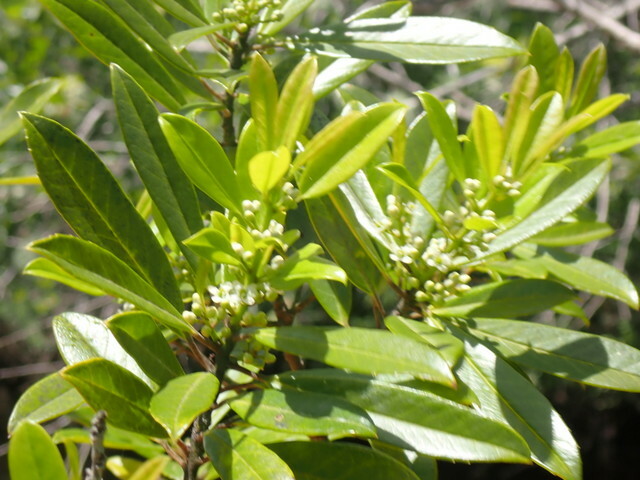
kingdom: Plantae
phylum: Tracheophyta
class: Magnoliopsida
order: Aquifoliales
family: Aquifoliaceae
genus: Ilex
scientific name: Ilex cassine
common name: Dahoon
